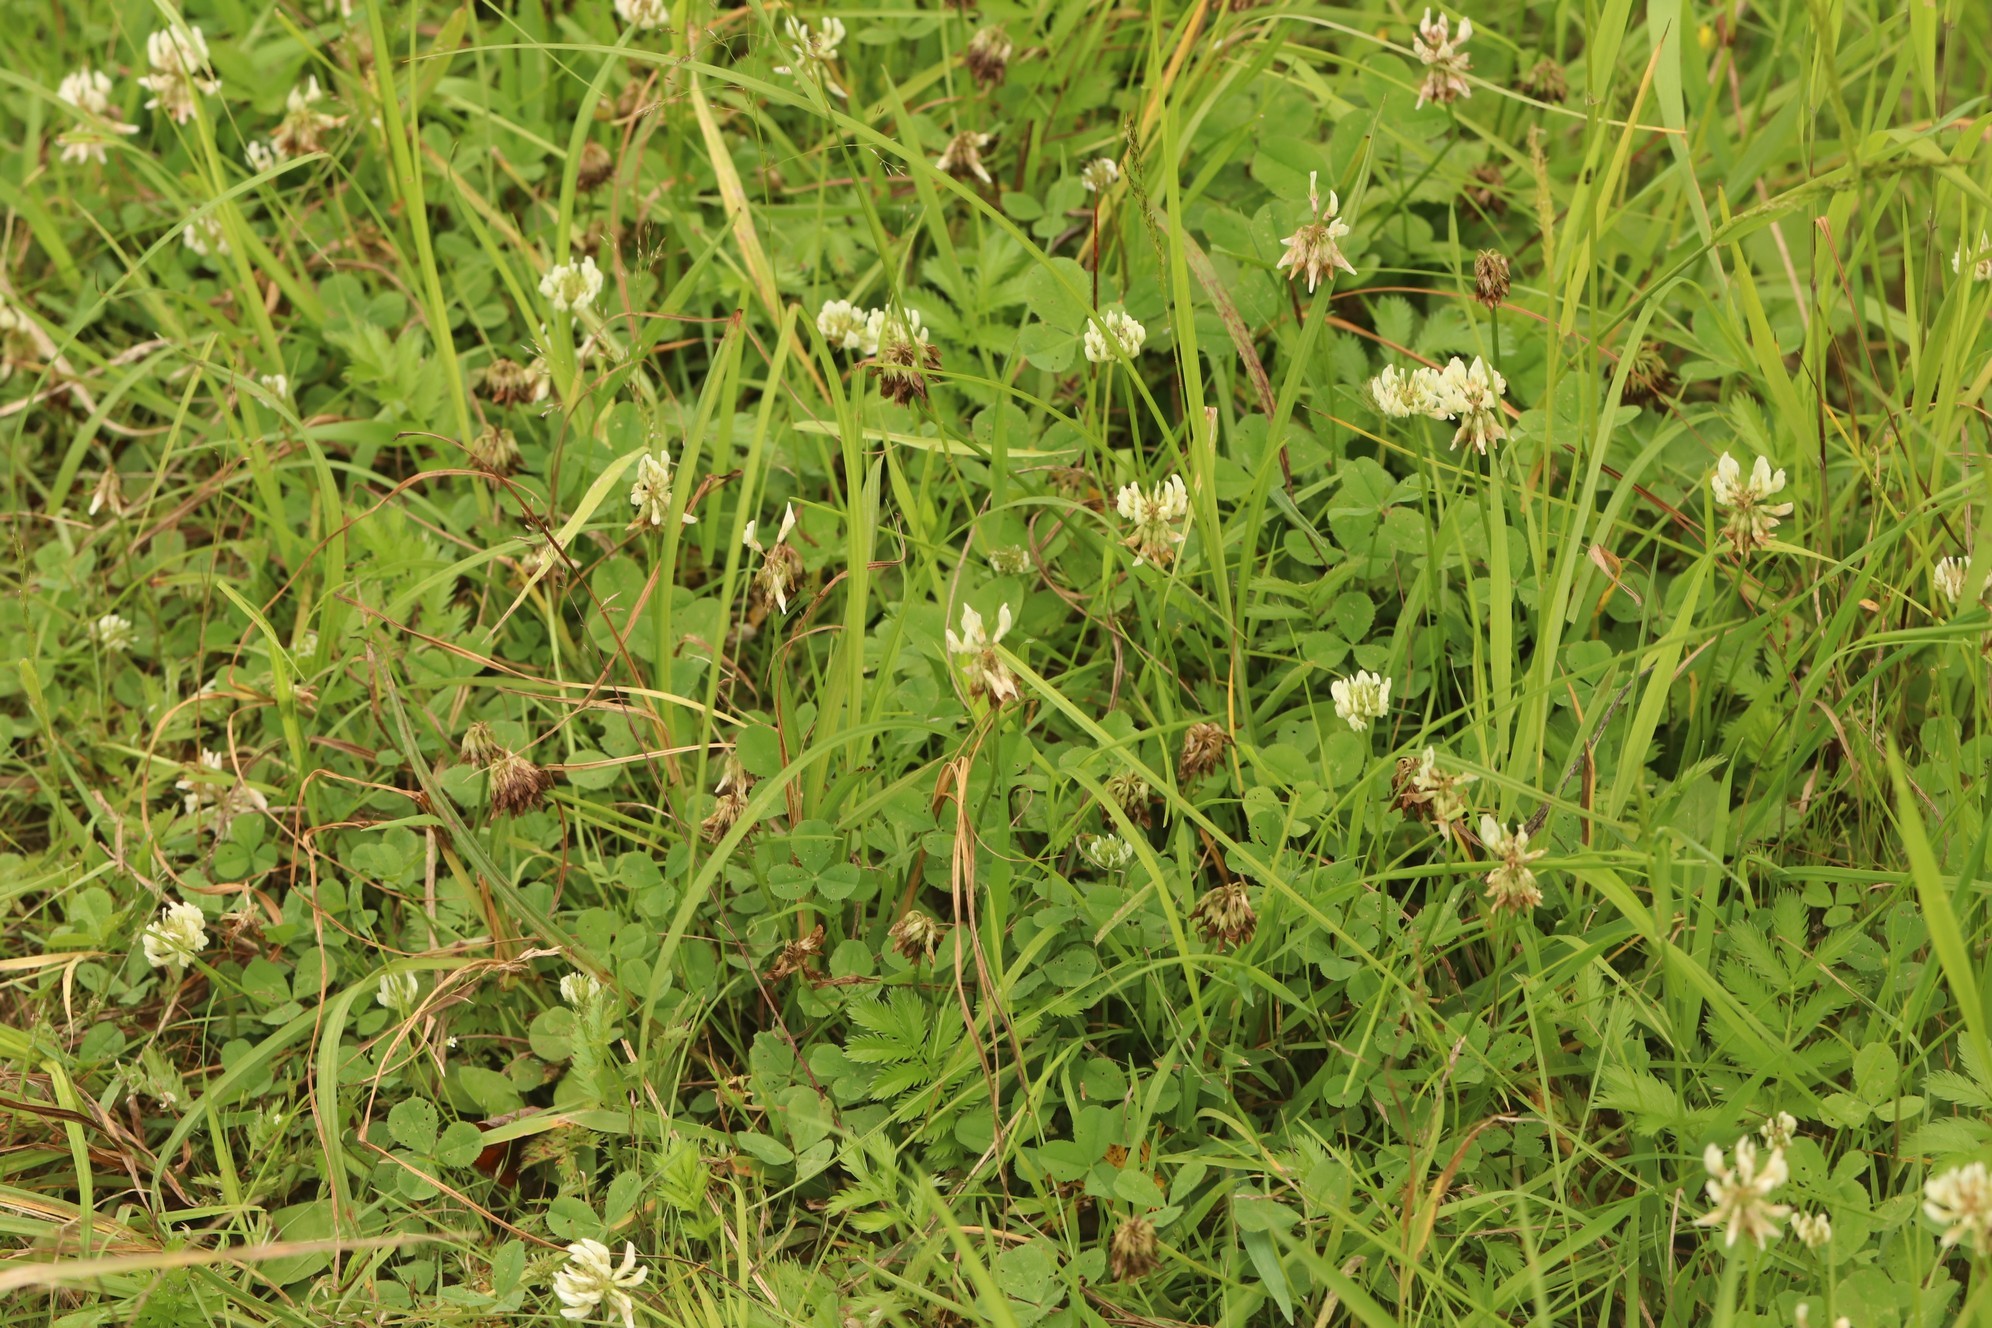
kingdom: Plantae
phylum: Tracheophyta
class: Magnoliopsida
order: Fabales
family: Fabaceae
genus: Trifolium
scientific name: Trifolium repens
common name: White clover
